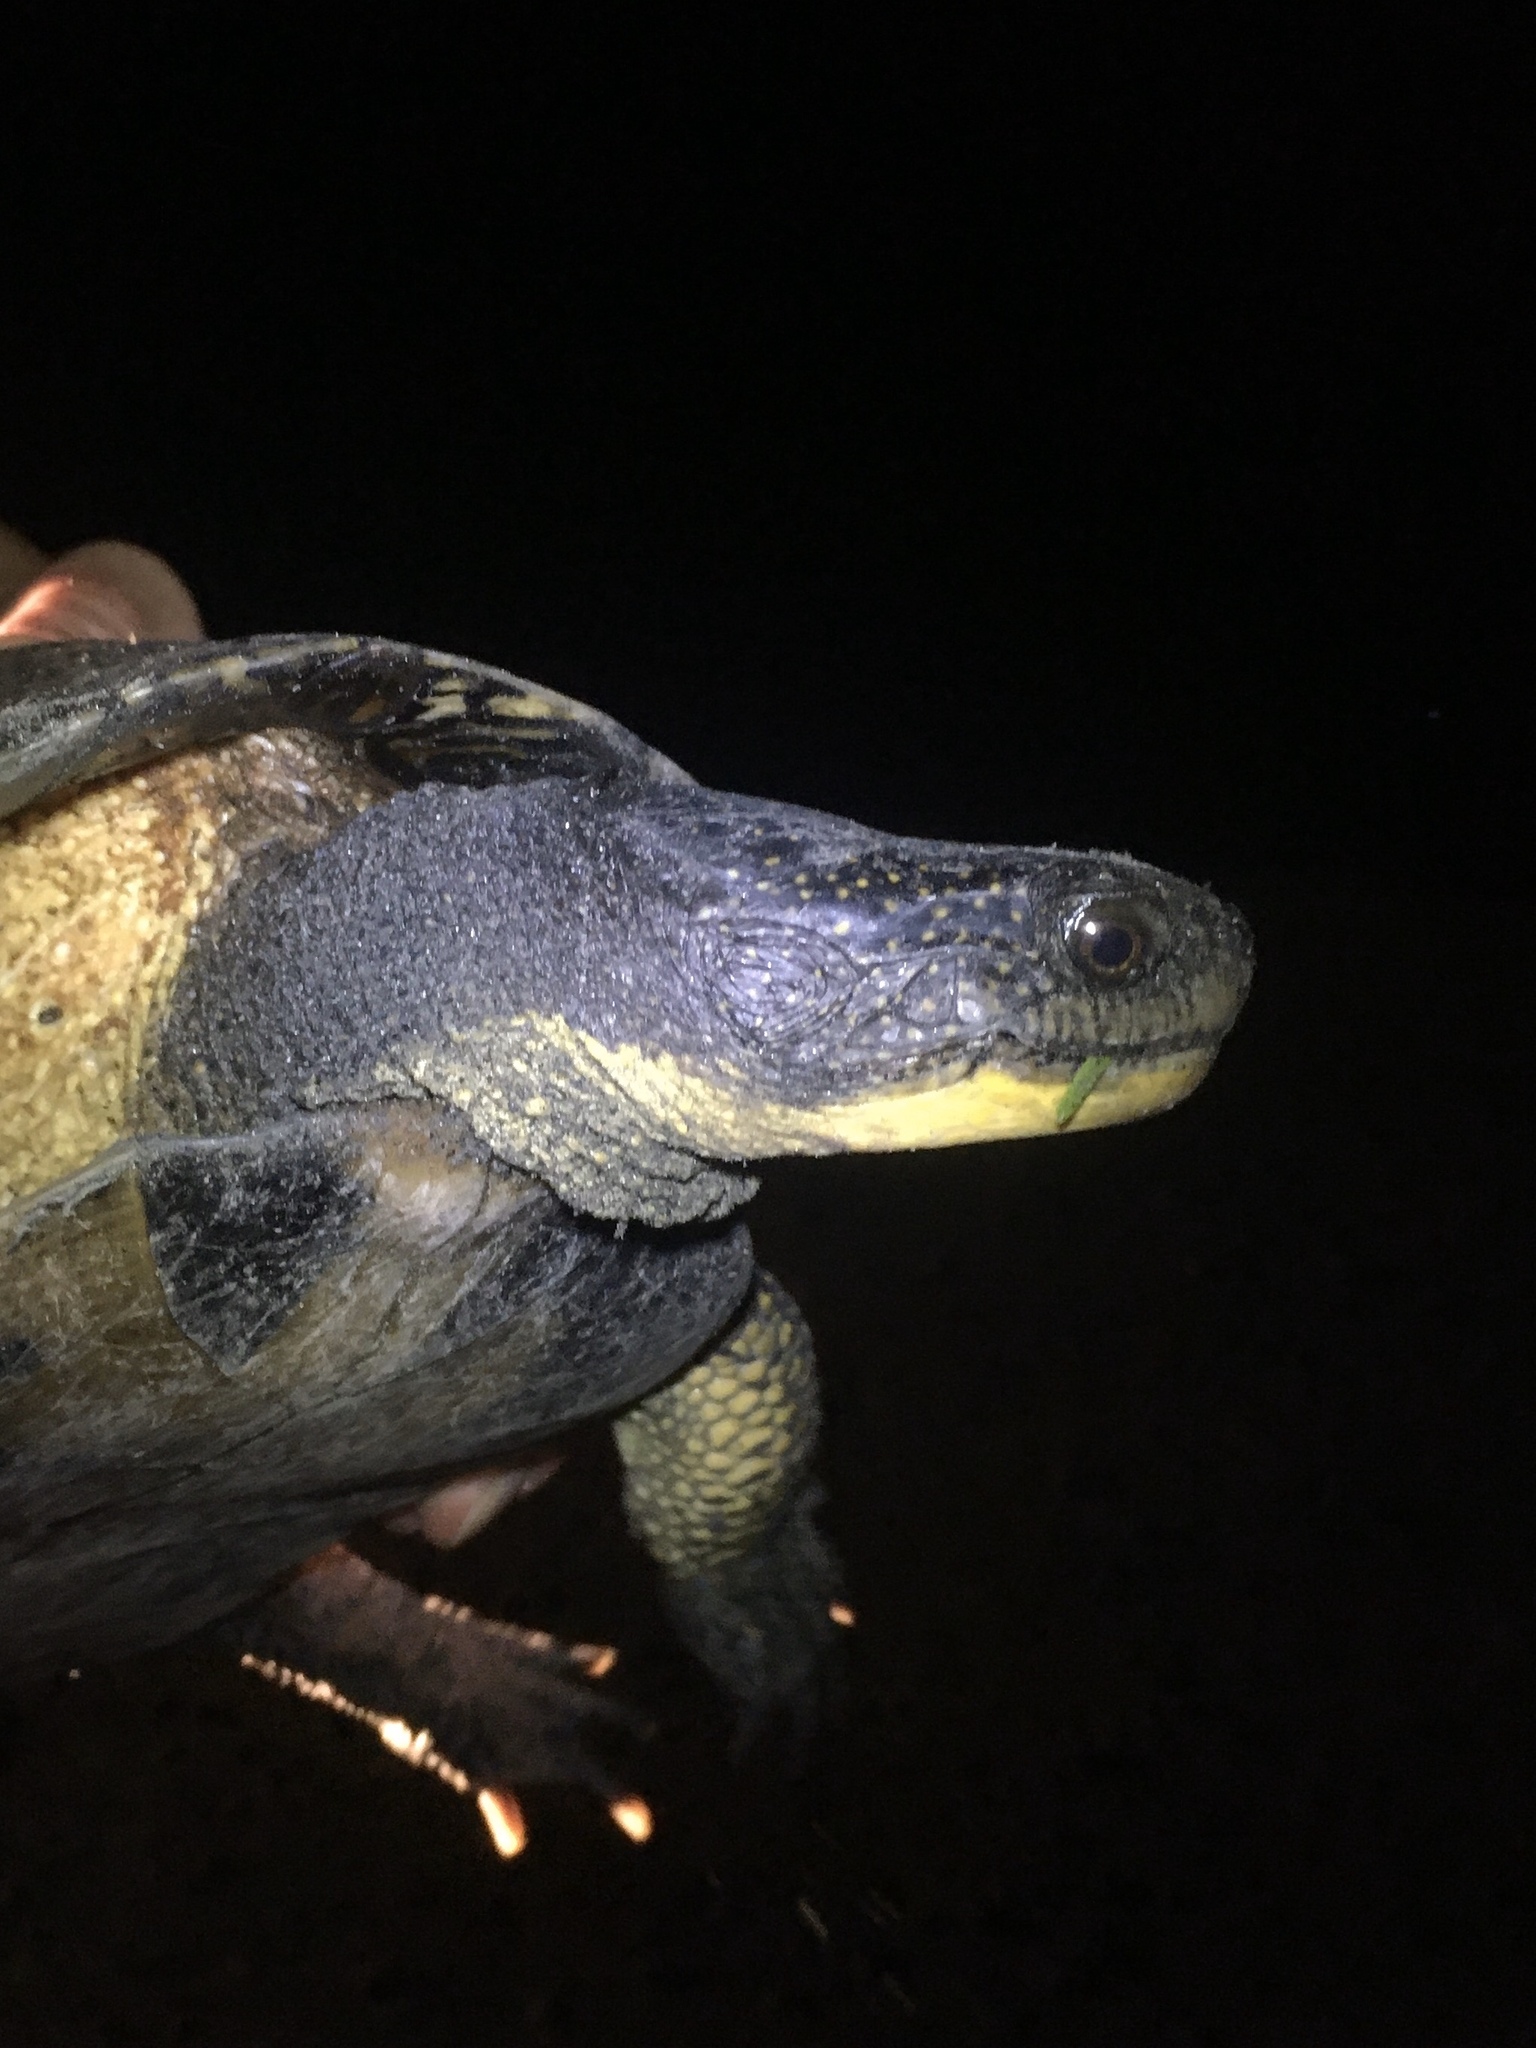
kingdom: Animalia
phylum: Chordata
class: Testudines
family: Emydidae
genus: Emys
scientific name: Emys blandingii
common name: Blanding's turtle
